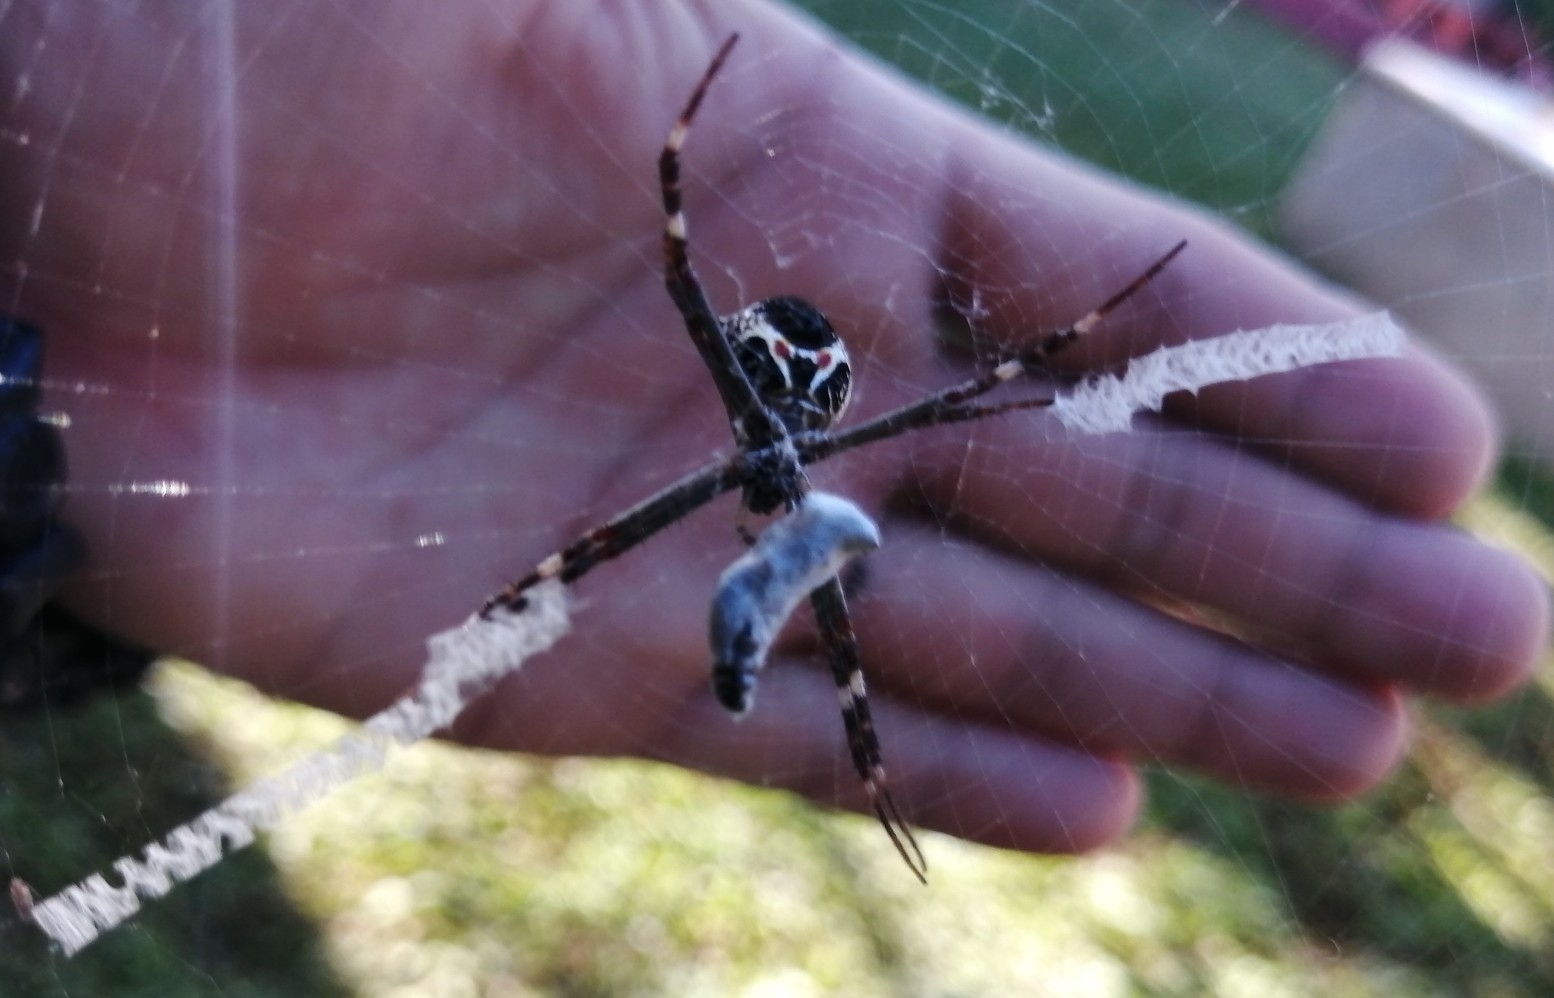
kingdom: Animalia
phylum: Arthropoda
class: Arachnida
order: Araneae
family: Araneidae
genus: Argiope
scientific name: Argiope argentata
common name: Orb weavers
